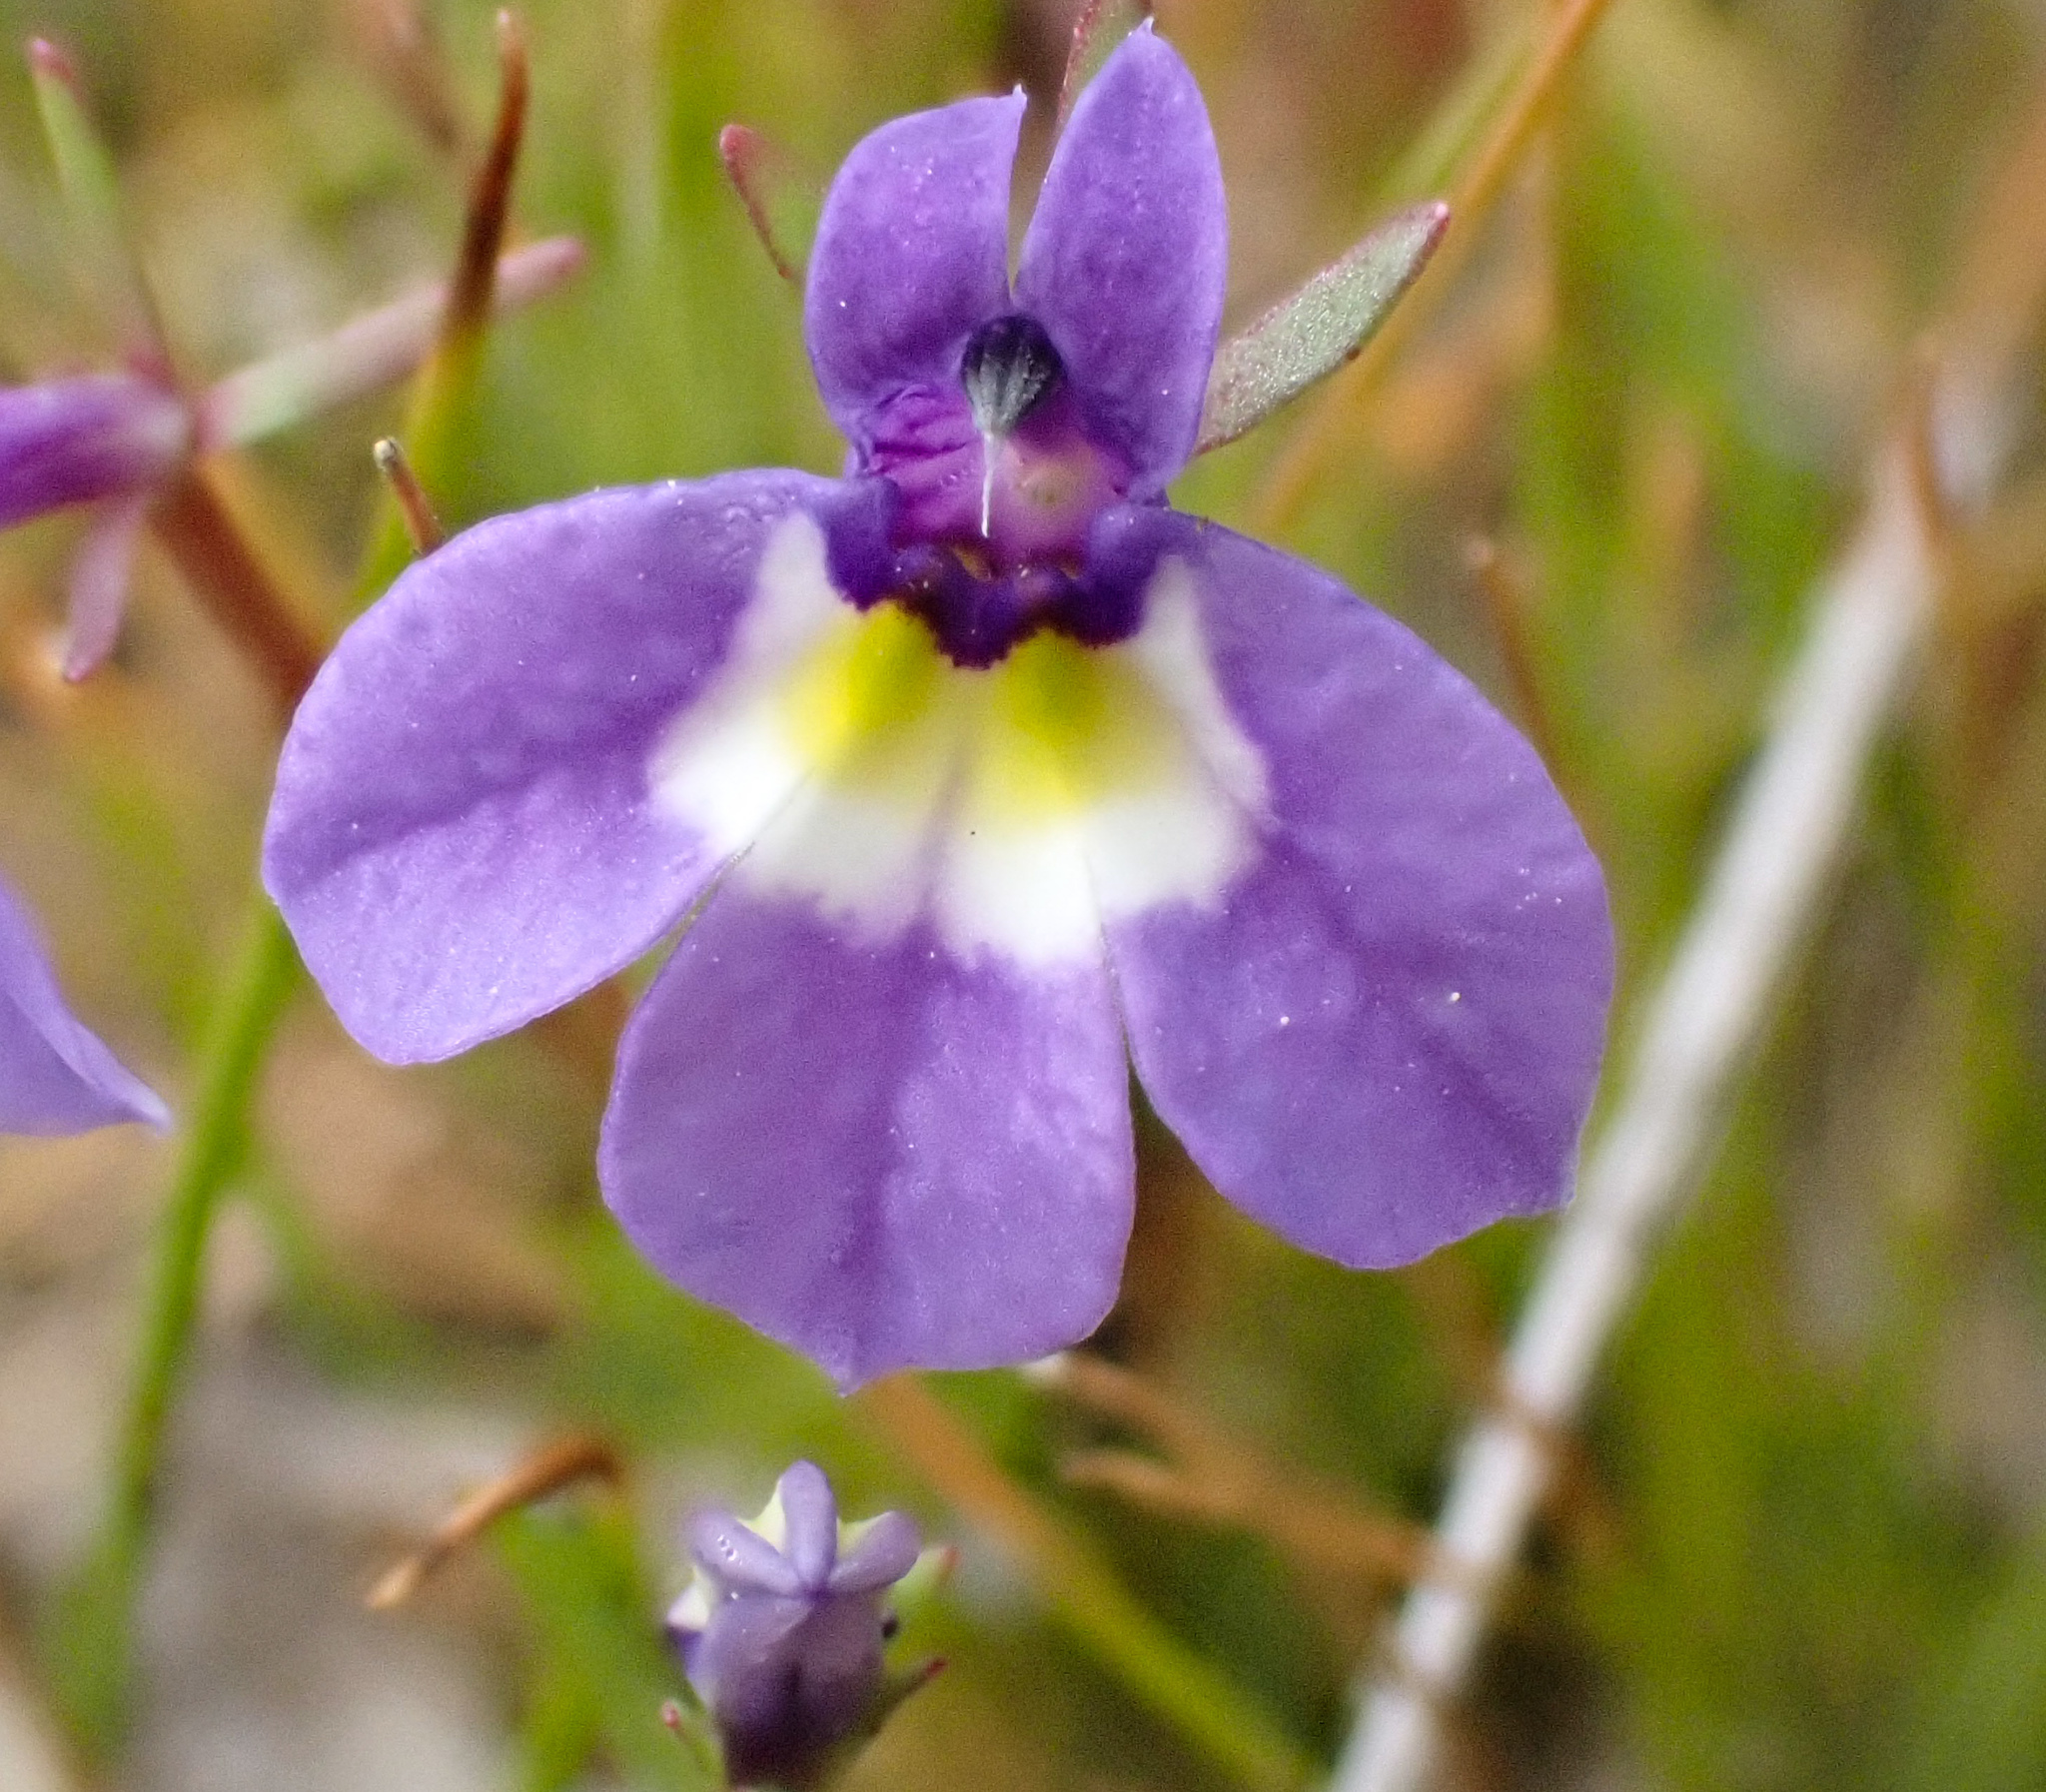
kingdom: Plantae
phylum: Tracheophyta
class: Magnoliopsida
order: Asterales
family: Campanulaceae
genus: Downingia
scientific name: Downingia bicornuta
